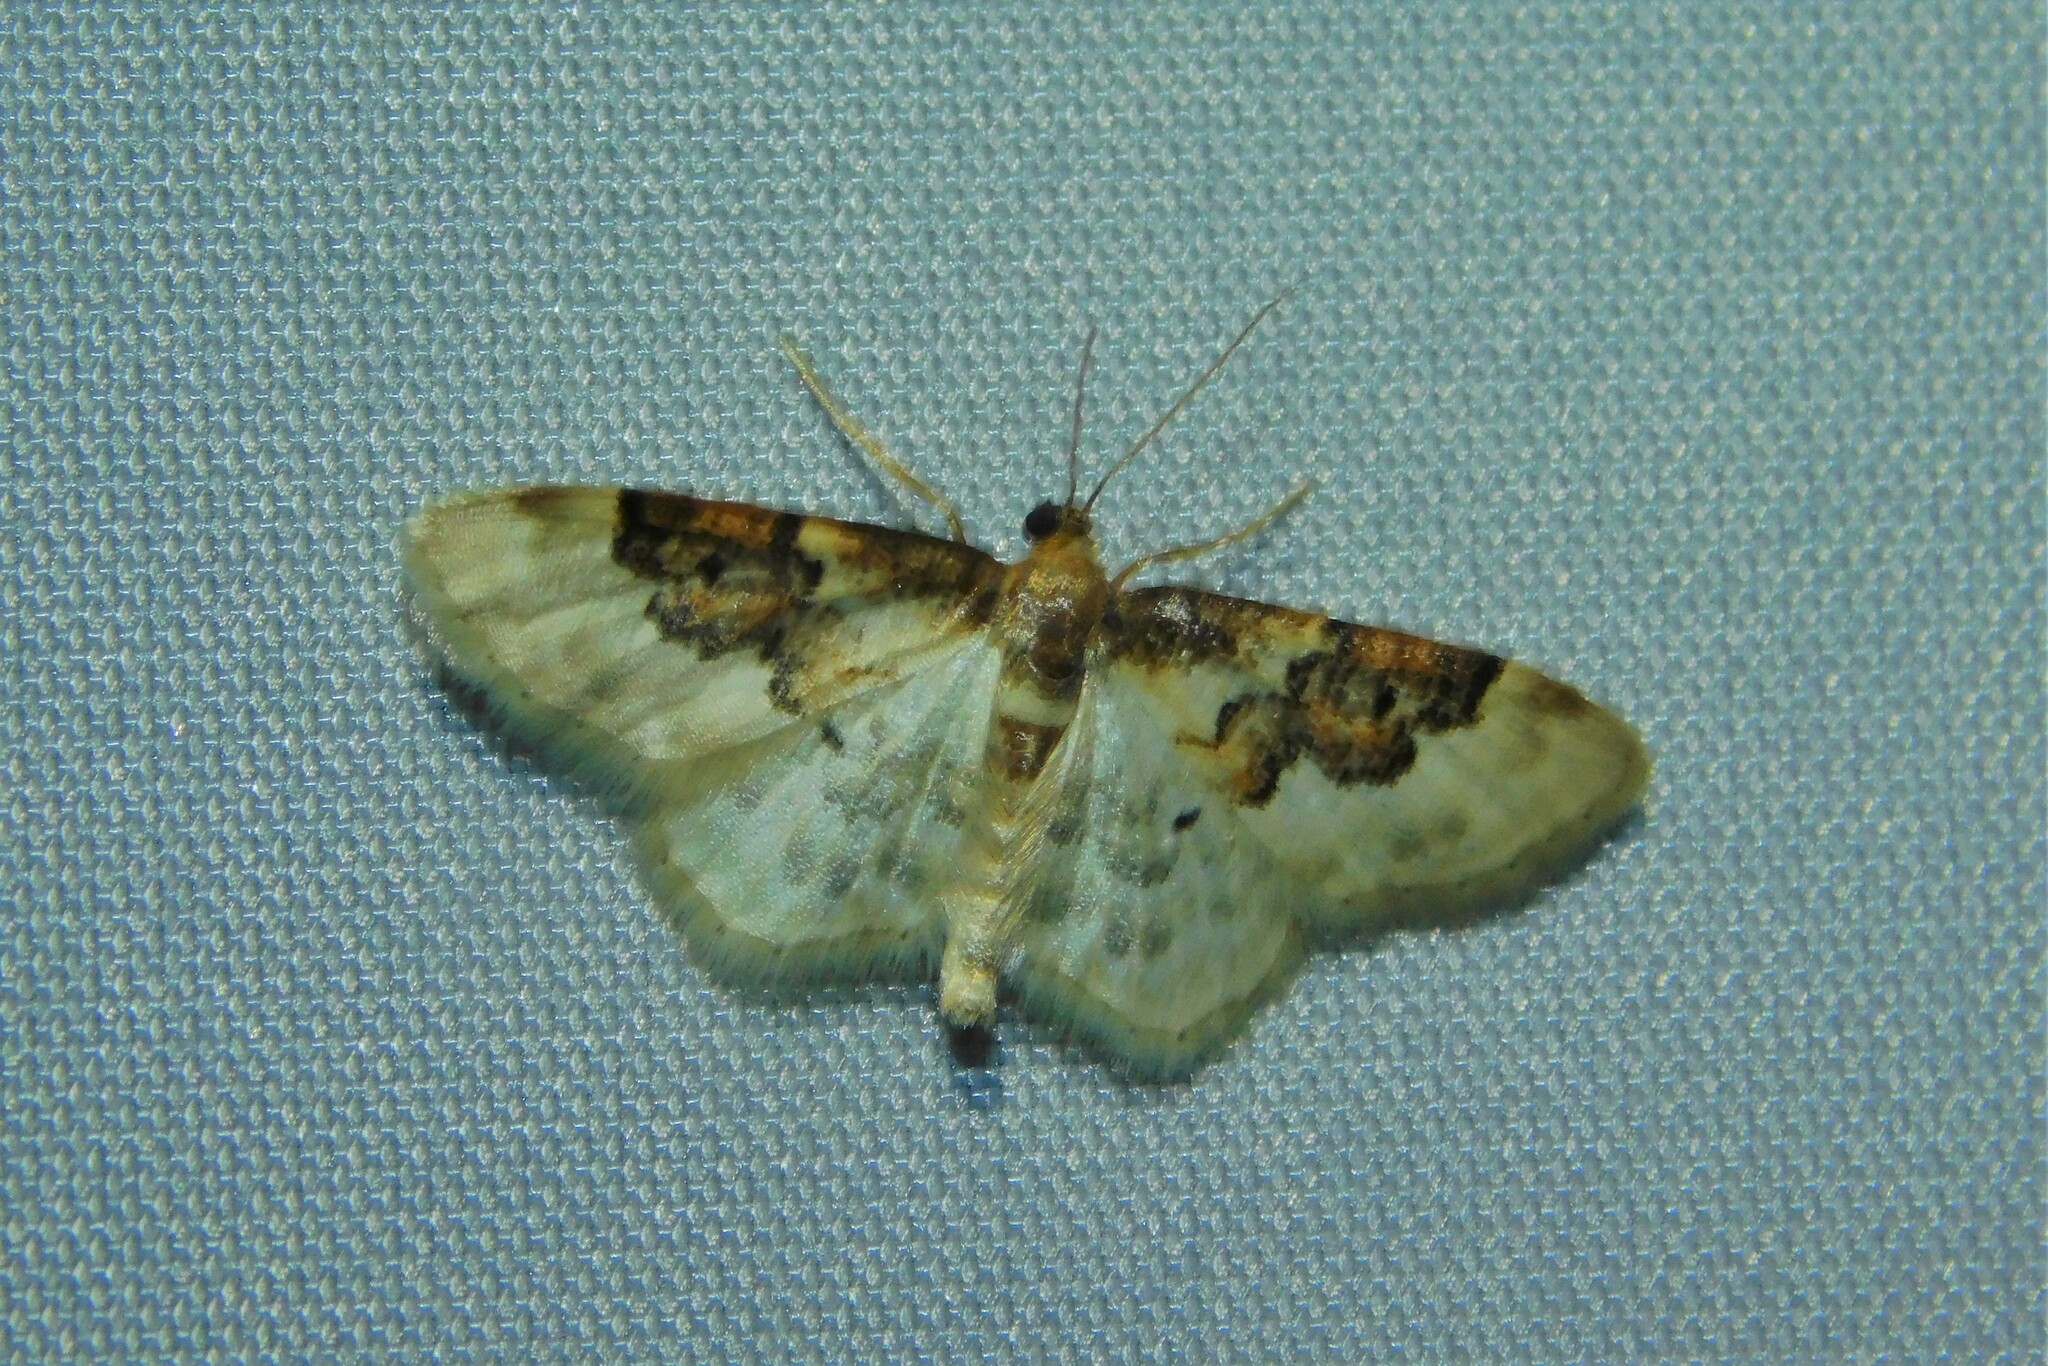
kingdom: Animalia
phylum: Arthropoda
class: Insecta
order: Lepidoptera
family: Geometridae
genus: Idaea
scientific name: Idaea rusticata
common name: Least carpet
